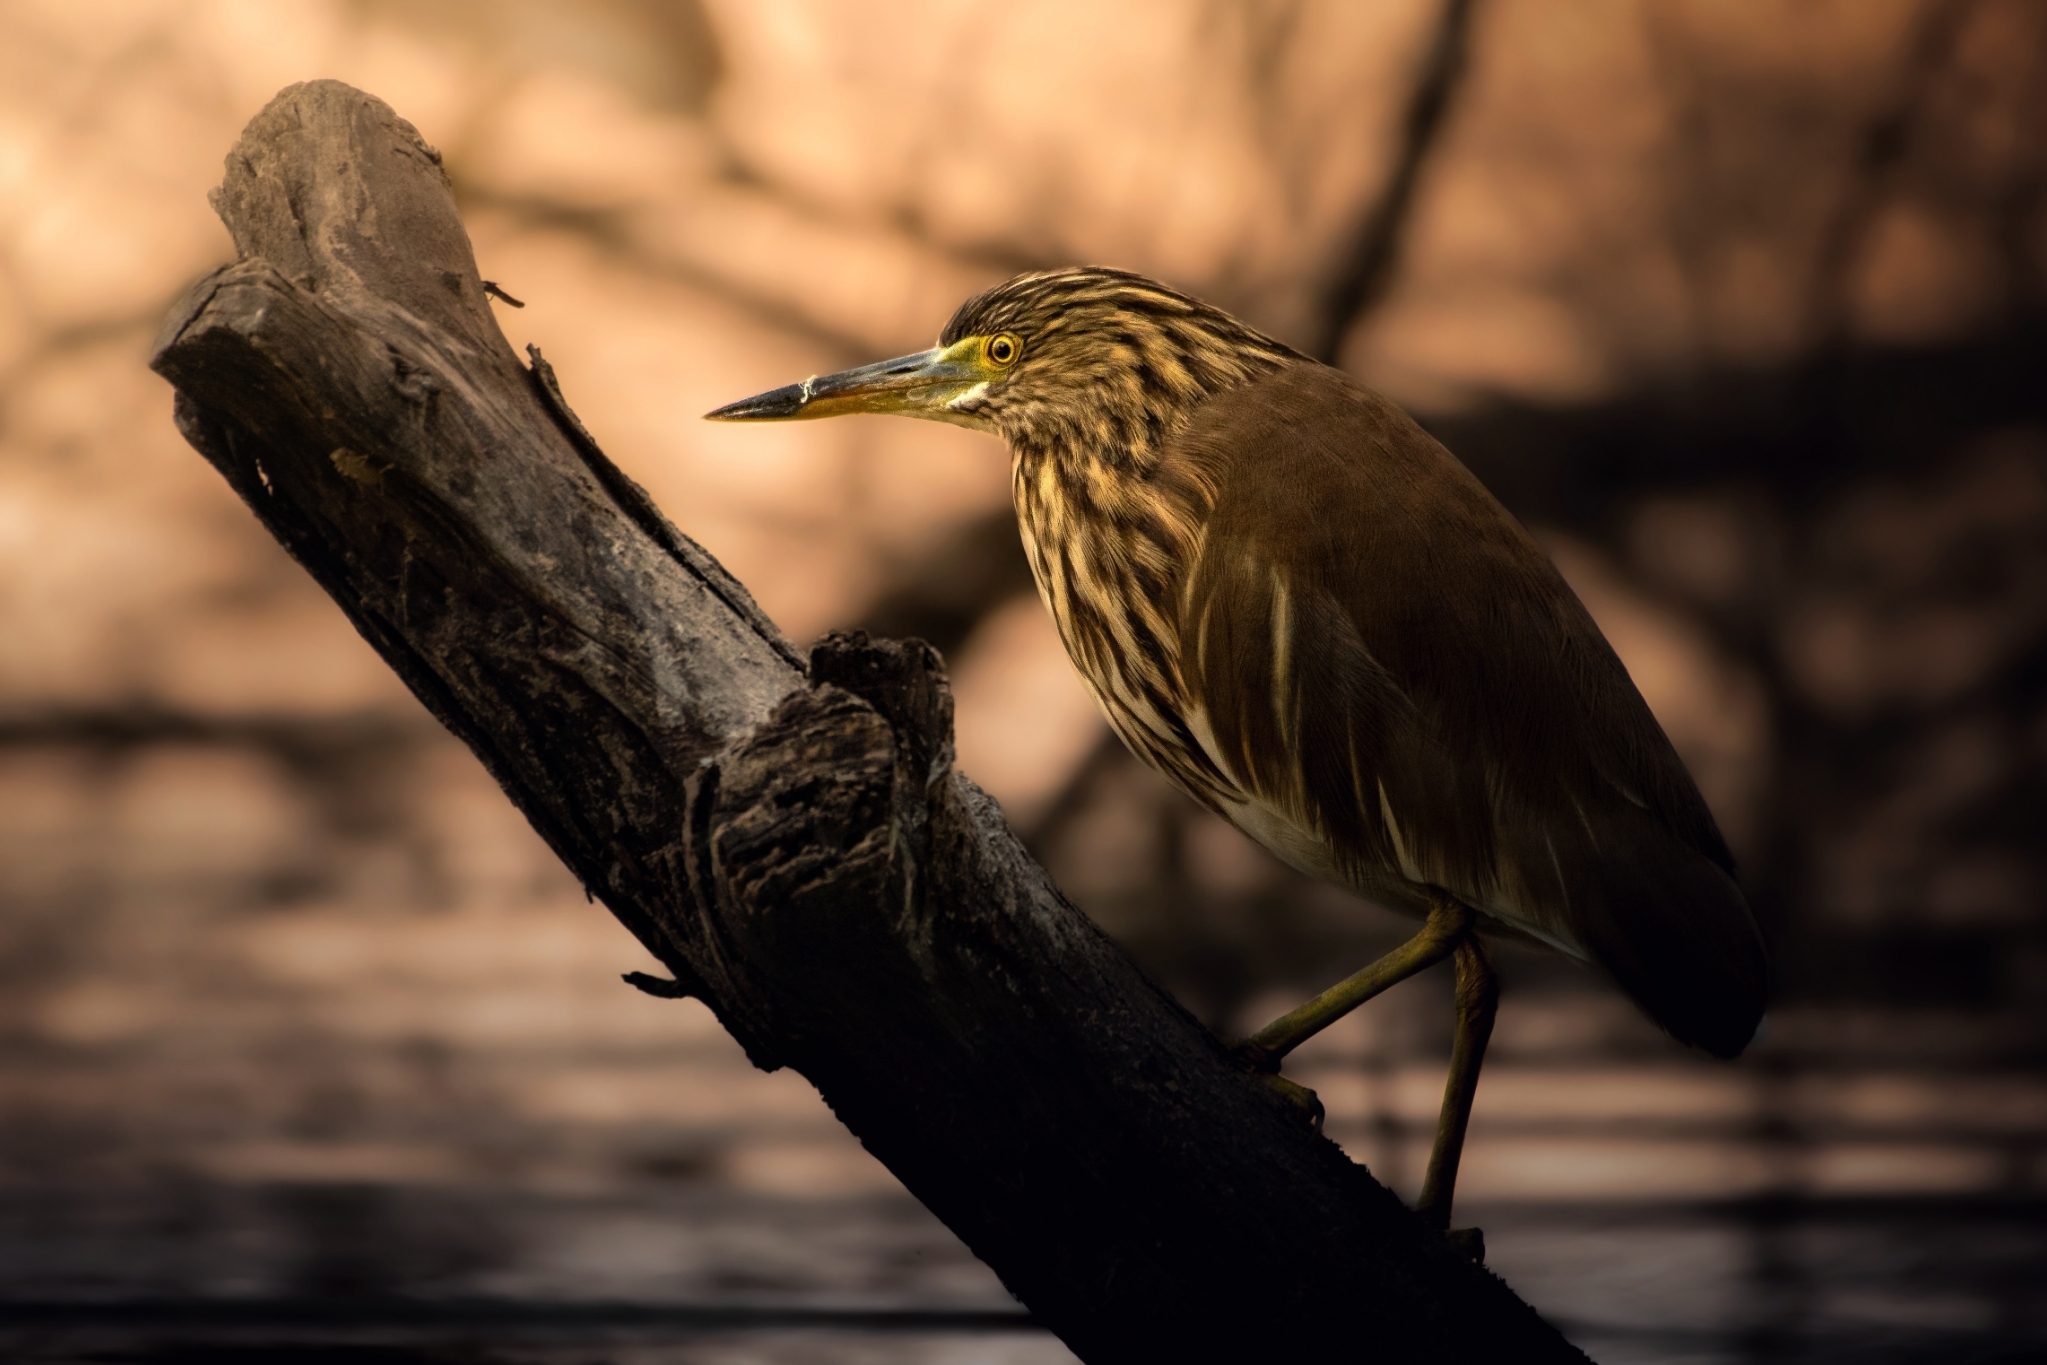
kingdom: Animalia
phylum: Chordata
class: Aves
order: Pelecaniformes
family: Ardeidae
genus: Ardeola
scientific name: Ardeola grayii
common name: Indian pond heron
